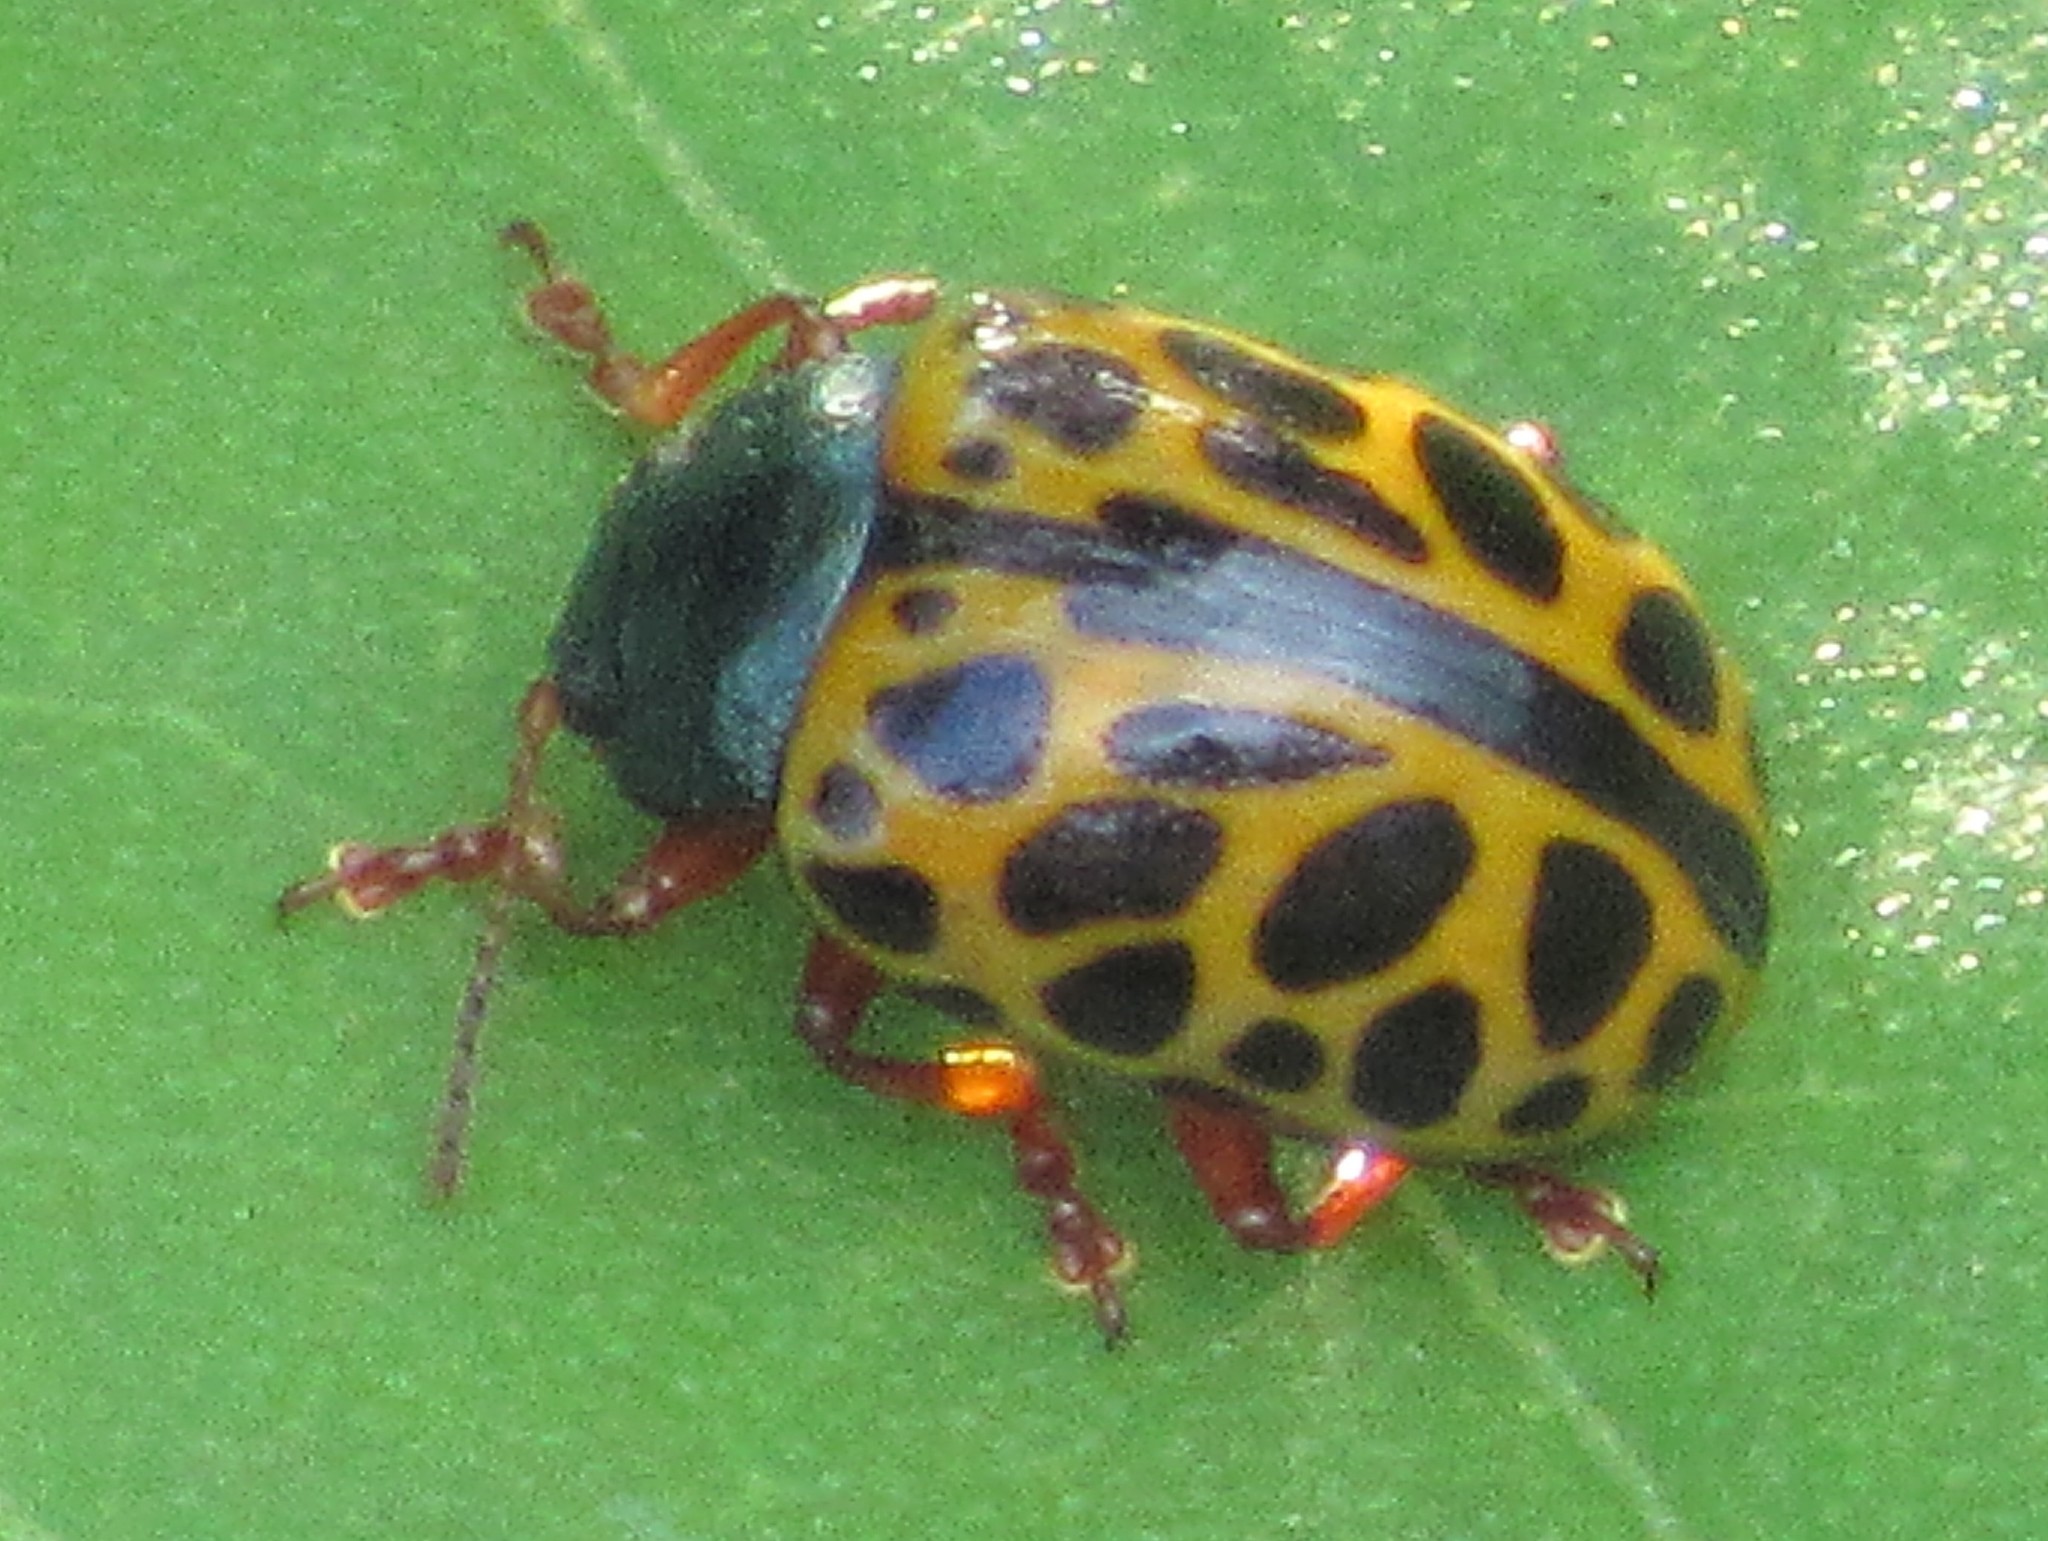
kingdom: Animalia
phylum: Arthropoda
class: Insecta
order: Coleoptera
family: Chrysomelidae
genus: Calligrapha
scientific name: Calligrapha polyspila
